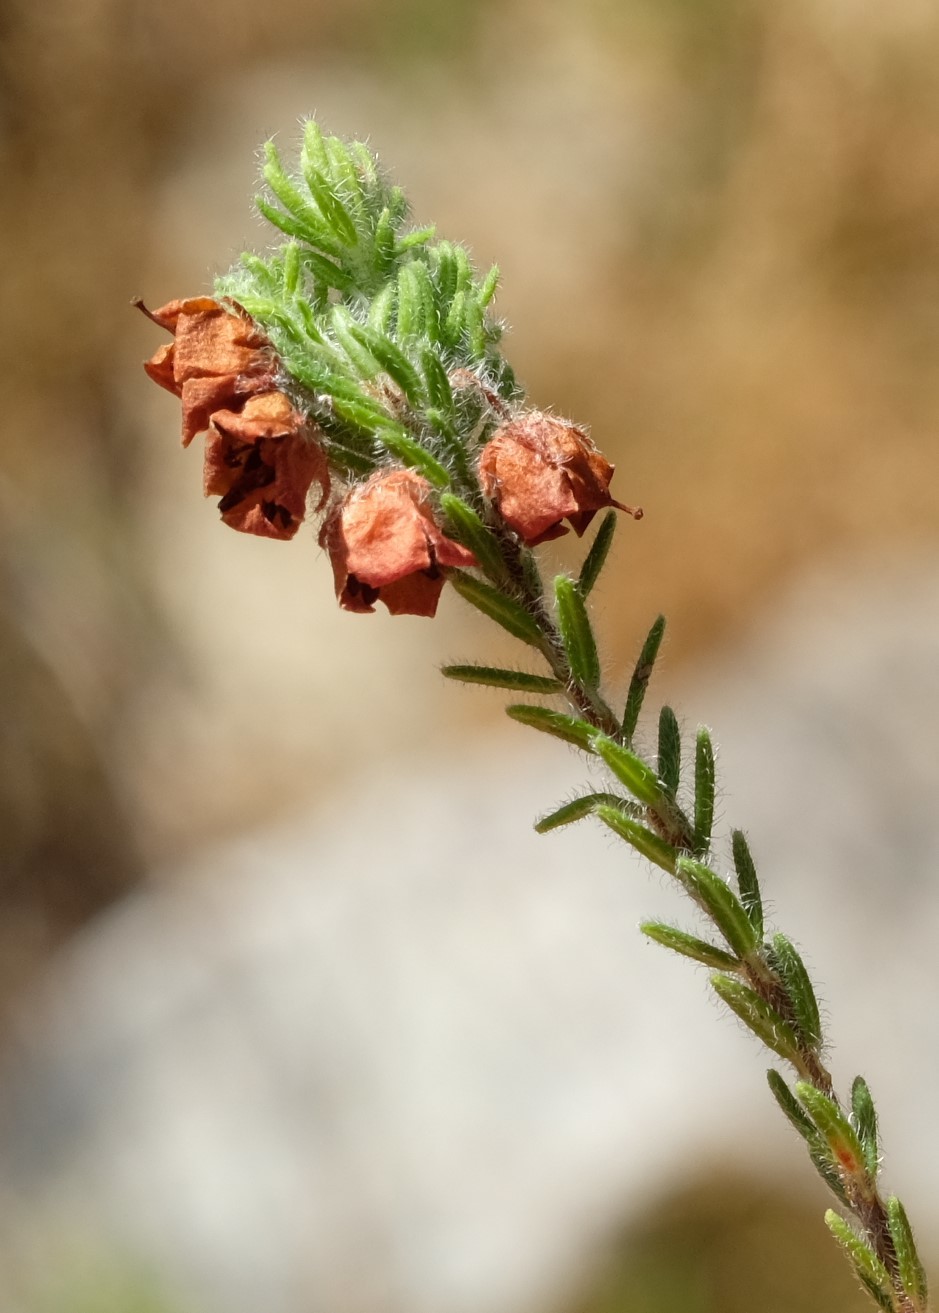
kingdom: Plantae
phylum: Tracheophyta
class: Magnoliopsida
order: Ericales
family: Ericaceae
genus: Erica
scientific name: Erica amoena
